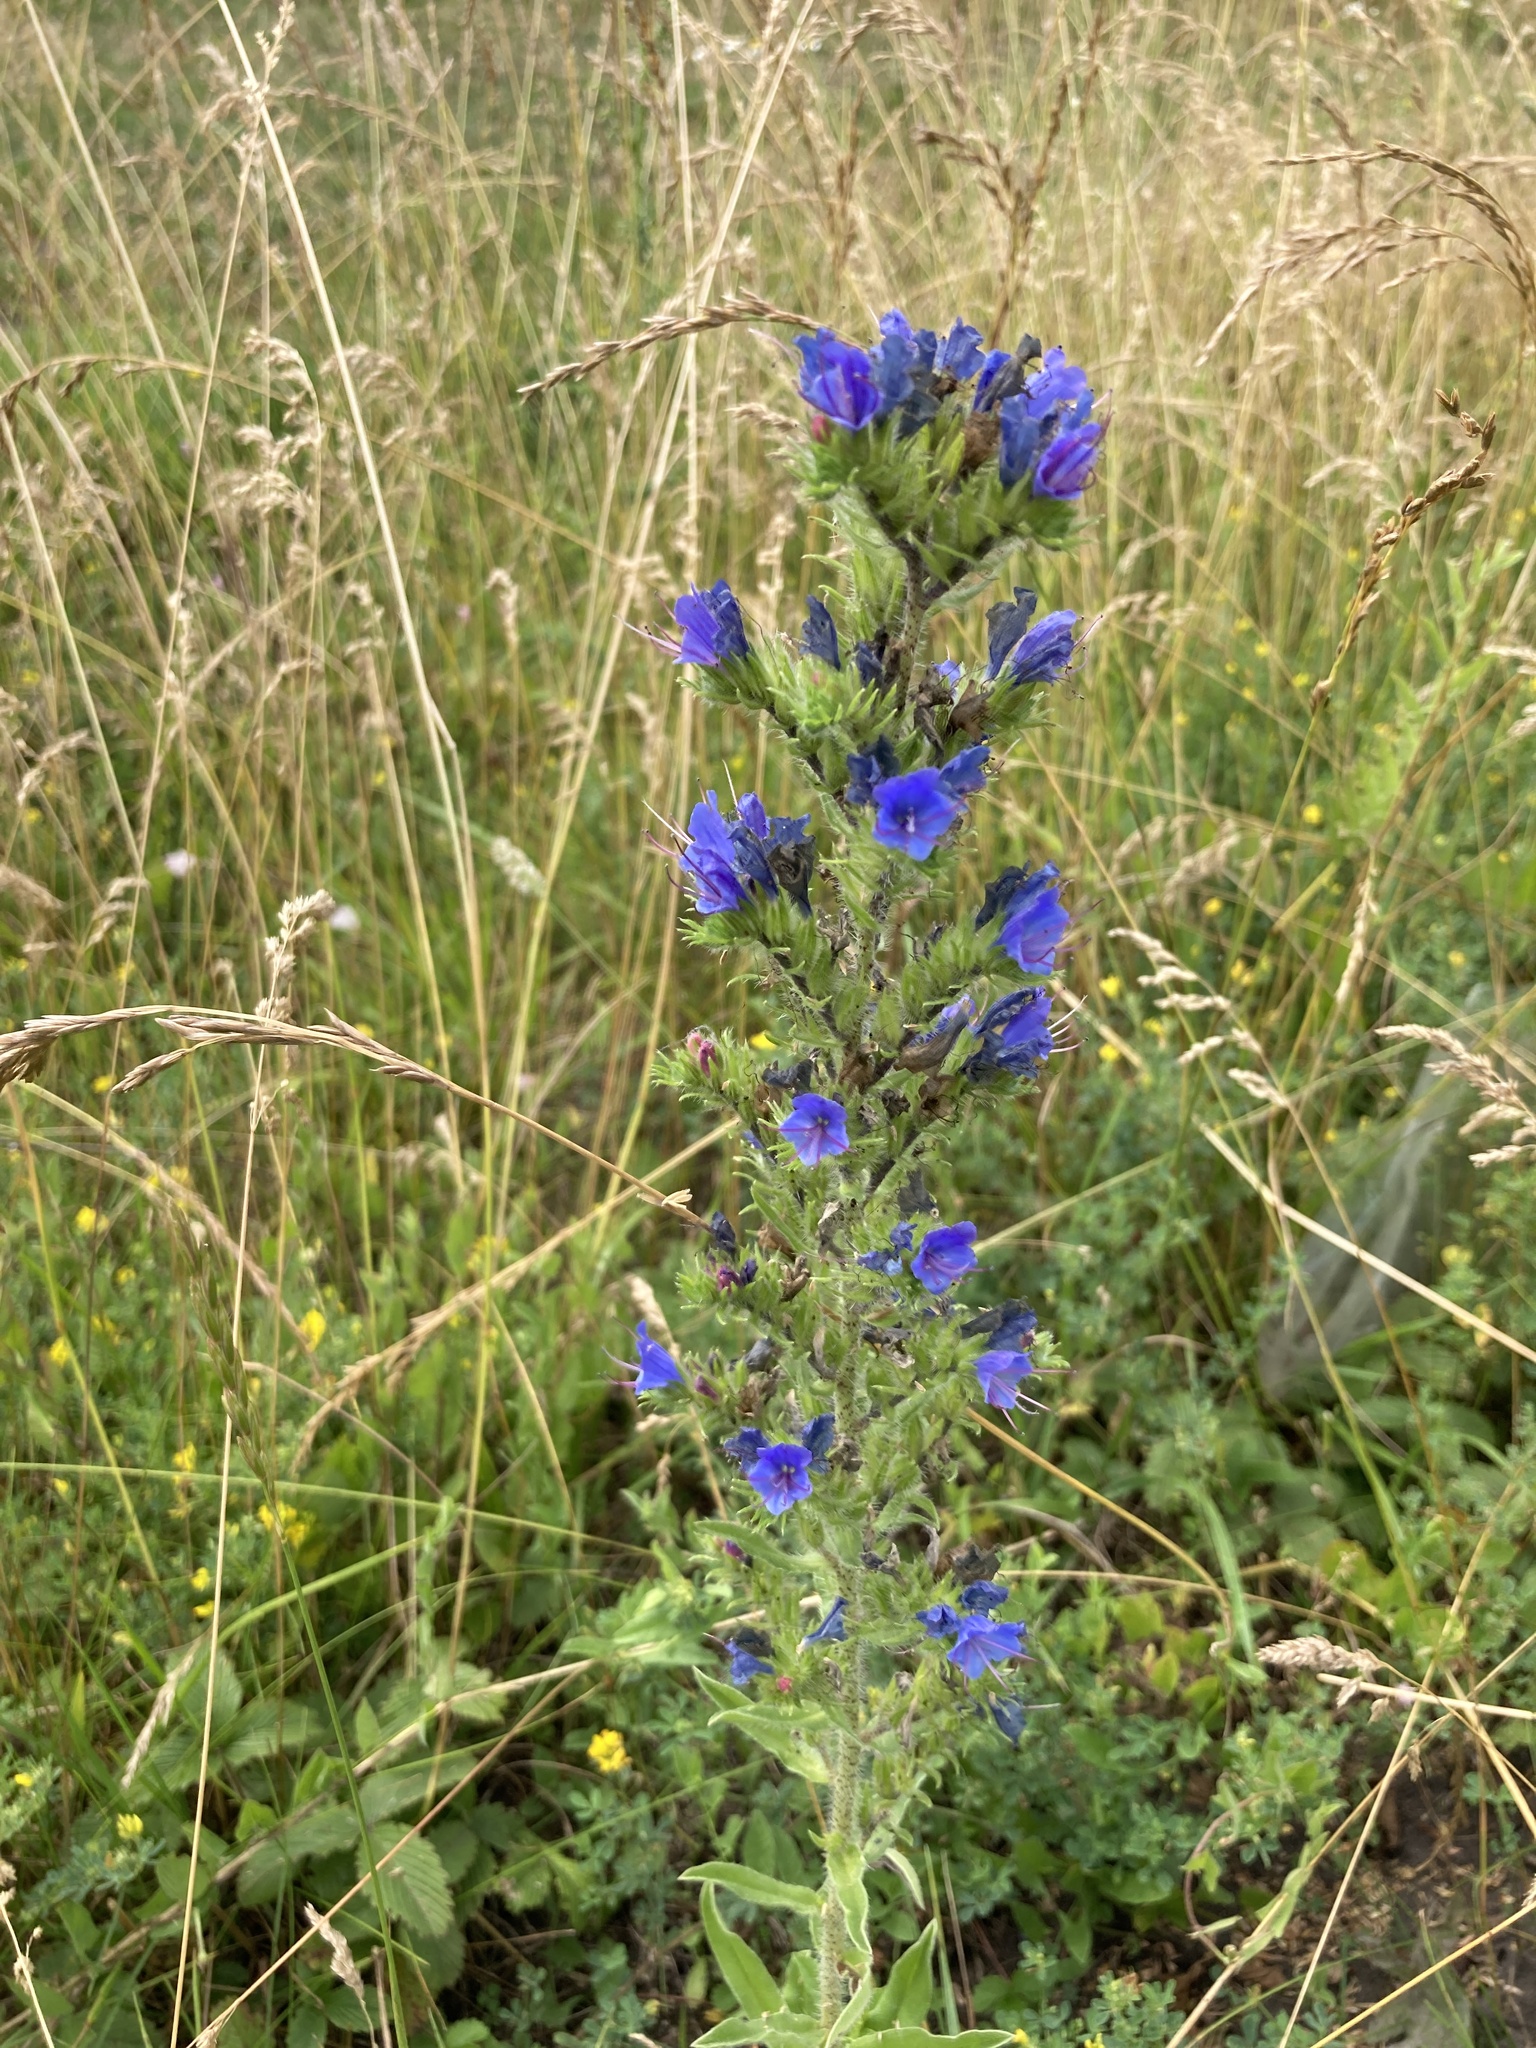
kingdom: Plantae
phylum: Tracheophyta
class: Magnoliopsida
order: Boraginales
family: Boraginaceae
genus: Echium
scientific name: Echium vulgare
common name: Common viper's bugloss
